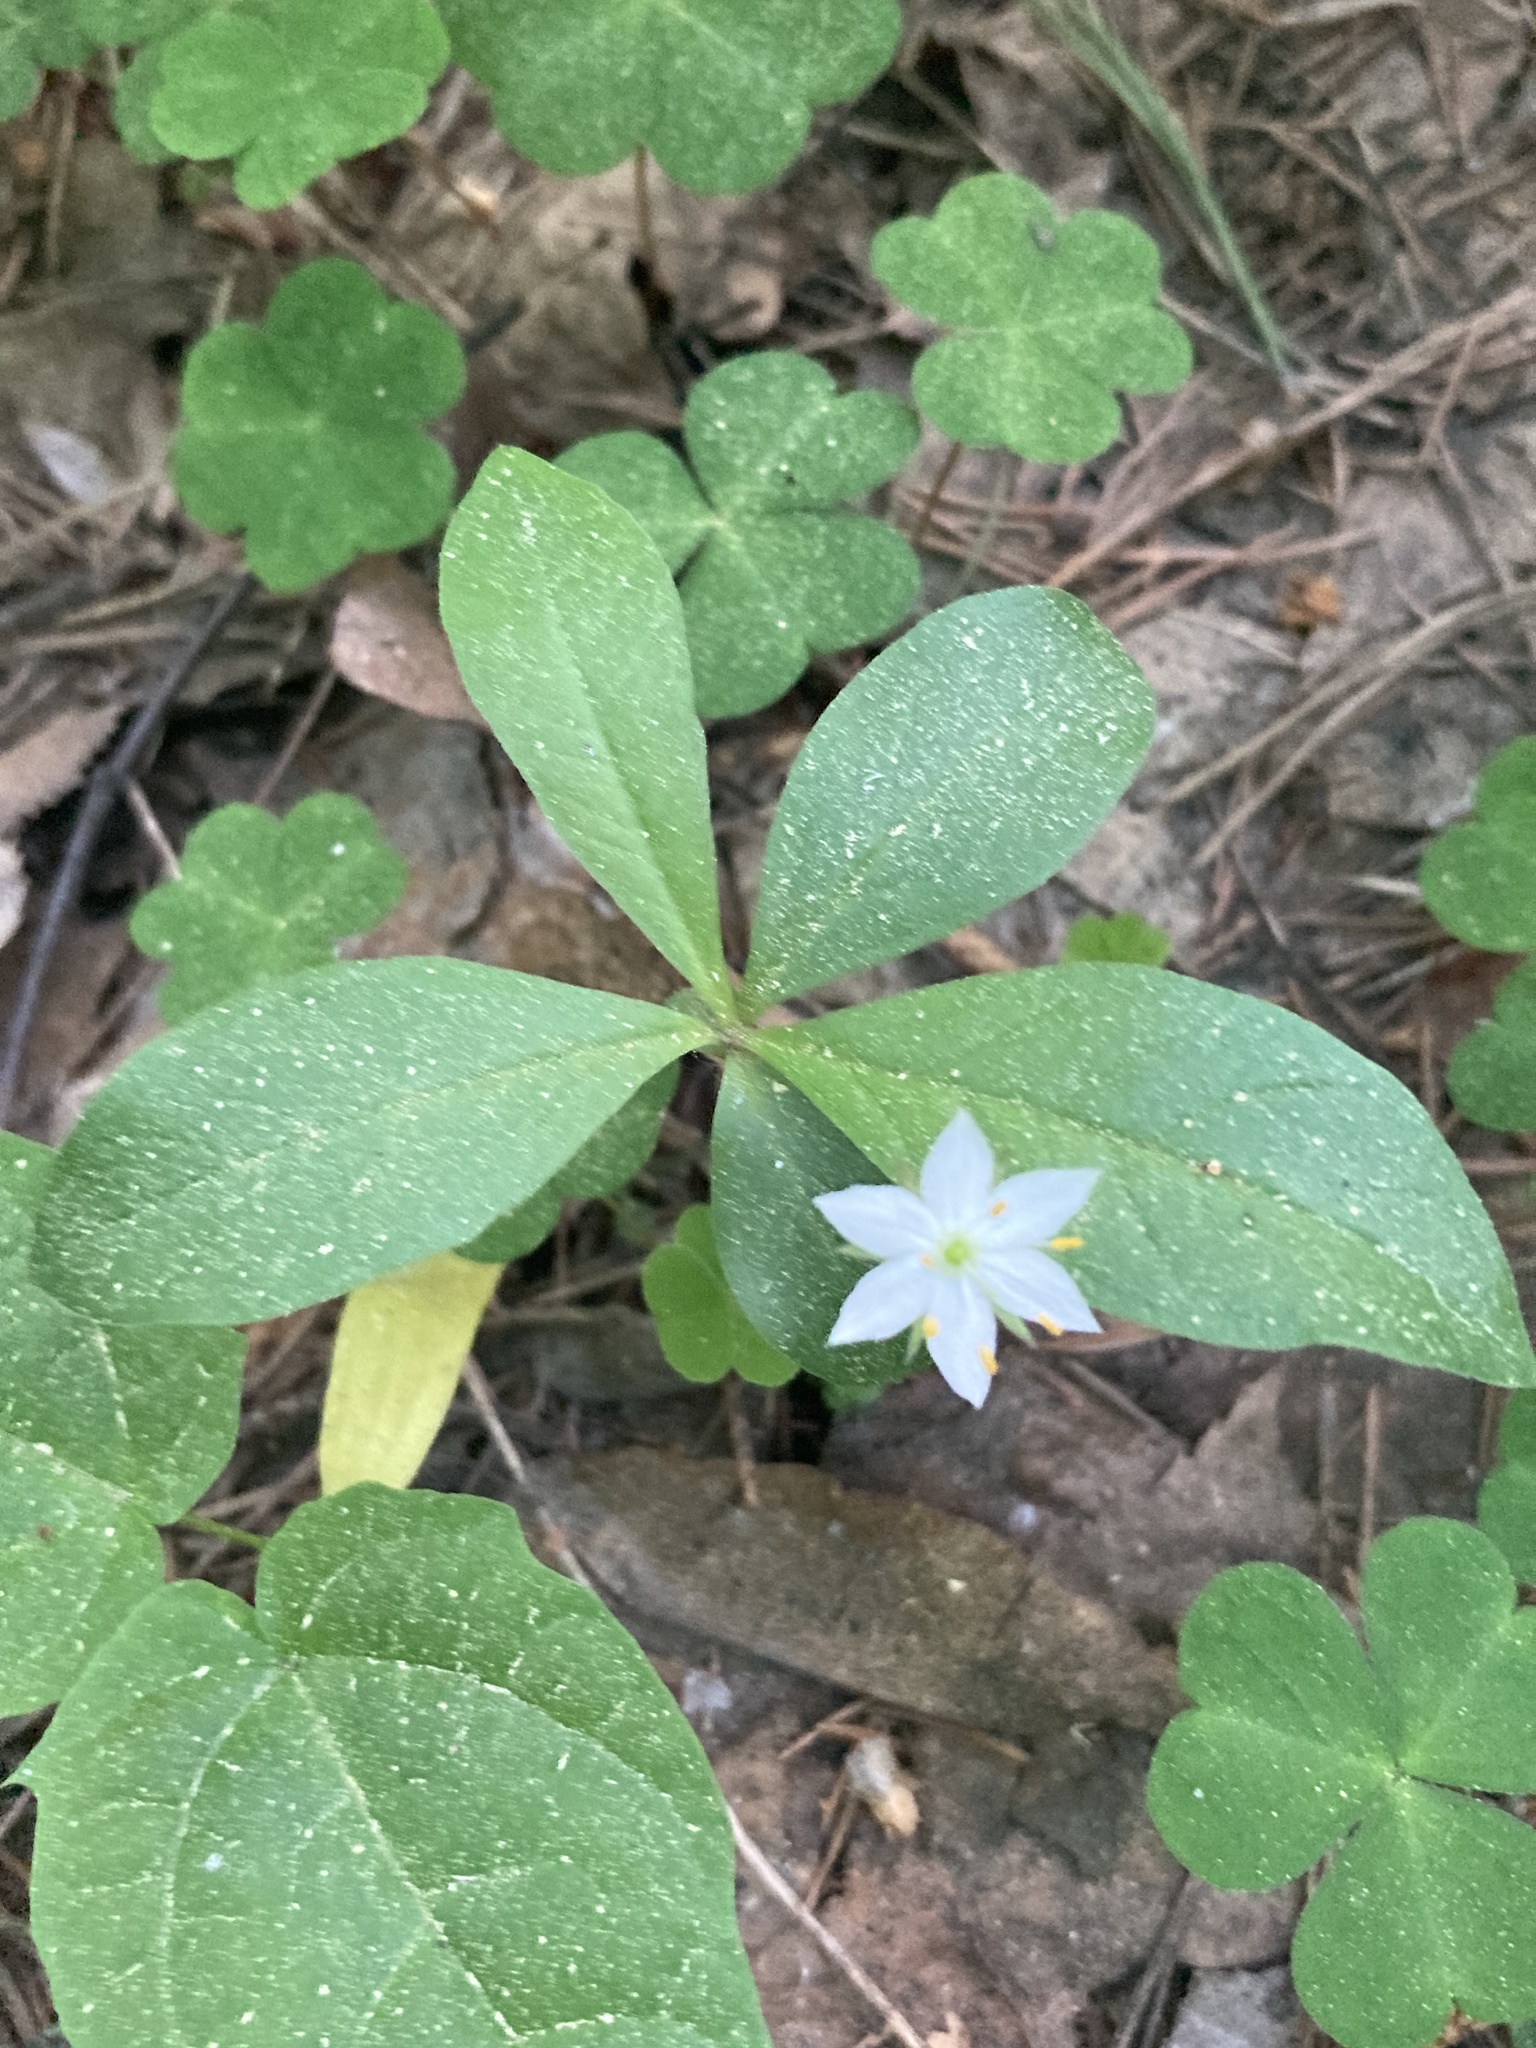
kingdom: Plantae
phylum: Tracheophyta
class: Magnoliopsida
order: Ericales
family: Primulaceae
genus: Lysimachia
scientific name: Lysimachia europaea
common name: Arctic starflower
